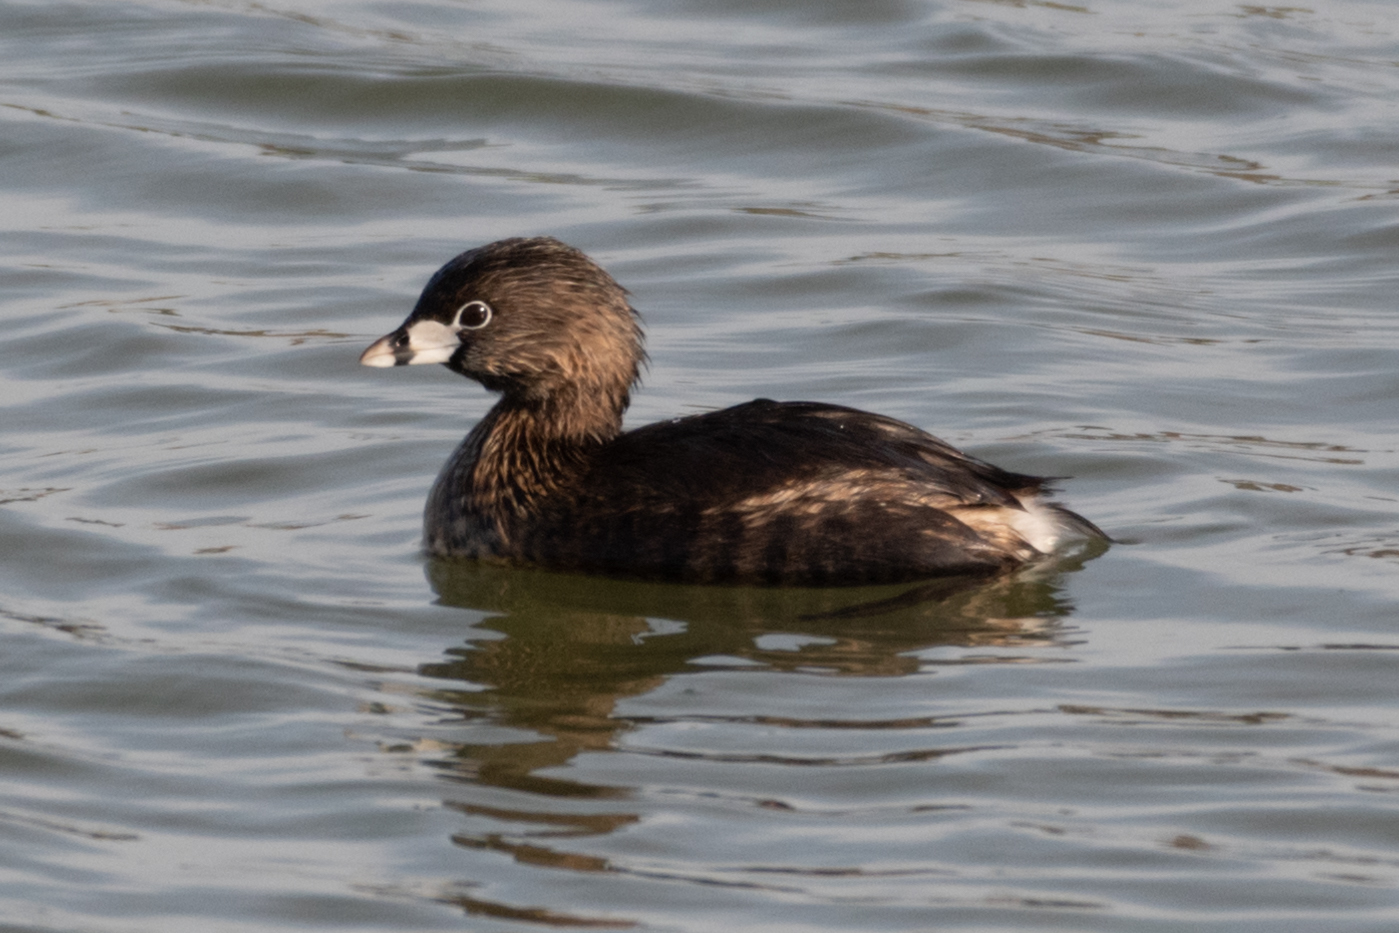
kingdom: Animalia
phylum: Chordata
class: Aves
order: Podicipediformes
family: Podicipedidae
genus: Podilymbus
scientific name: Podilymbus podiceps
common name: Pied-billed grebe
